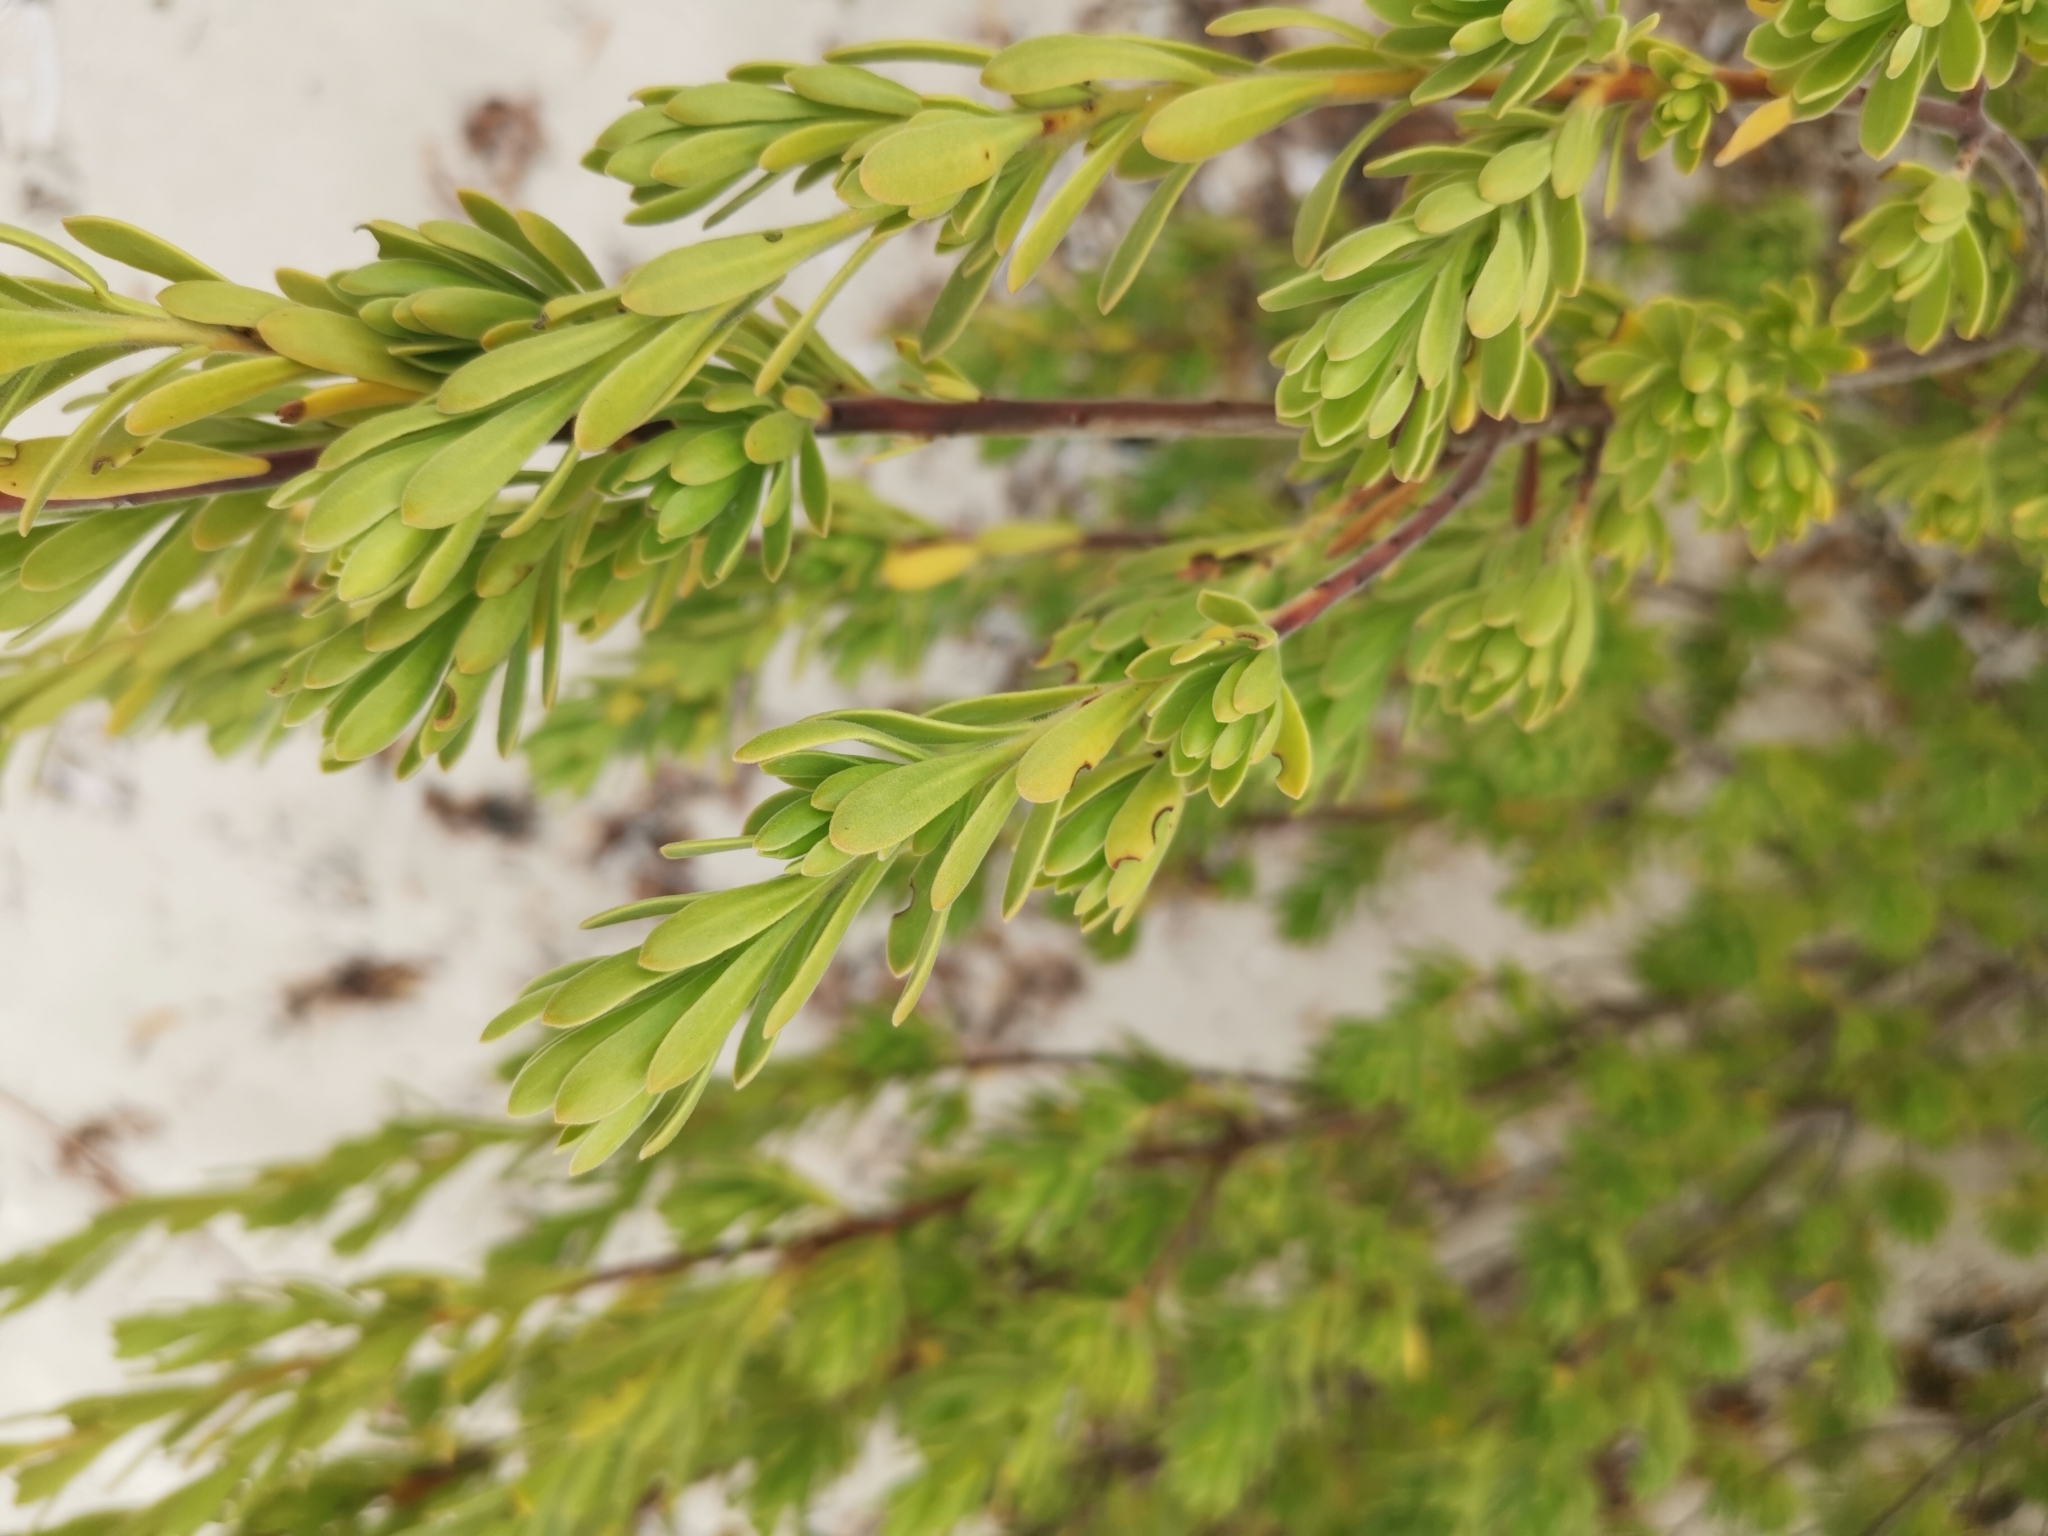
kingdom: Plantae
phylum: Tracheophyta
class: Magnoliopsida
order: Fabales
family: Surianaceae
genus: Suriana
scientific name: Suriana maritima
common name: Bay-cedar
